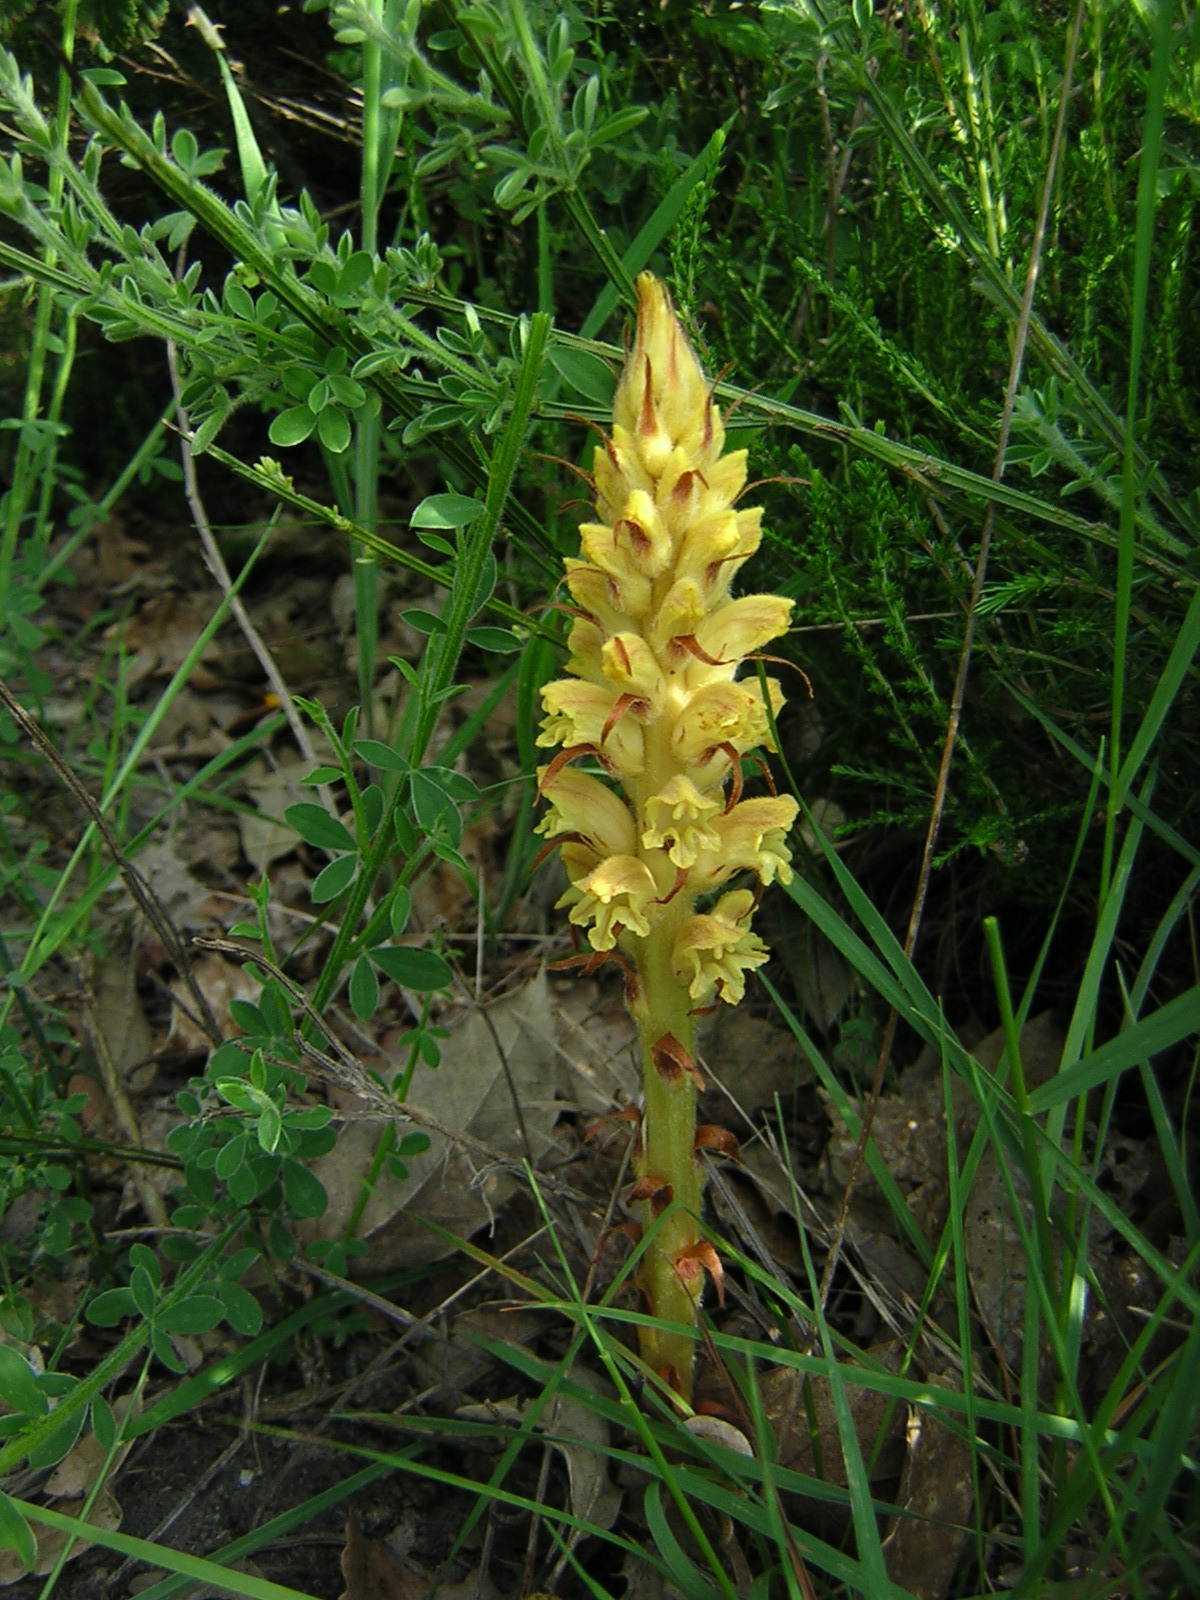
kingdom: Plantae
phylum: Tracheophyta
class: Magnoliopsida
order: Lamiales
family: Orobanchaceae
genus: Orobanche
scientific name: Orobanche rapum-genistae
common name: Greater broomrape
